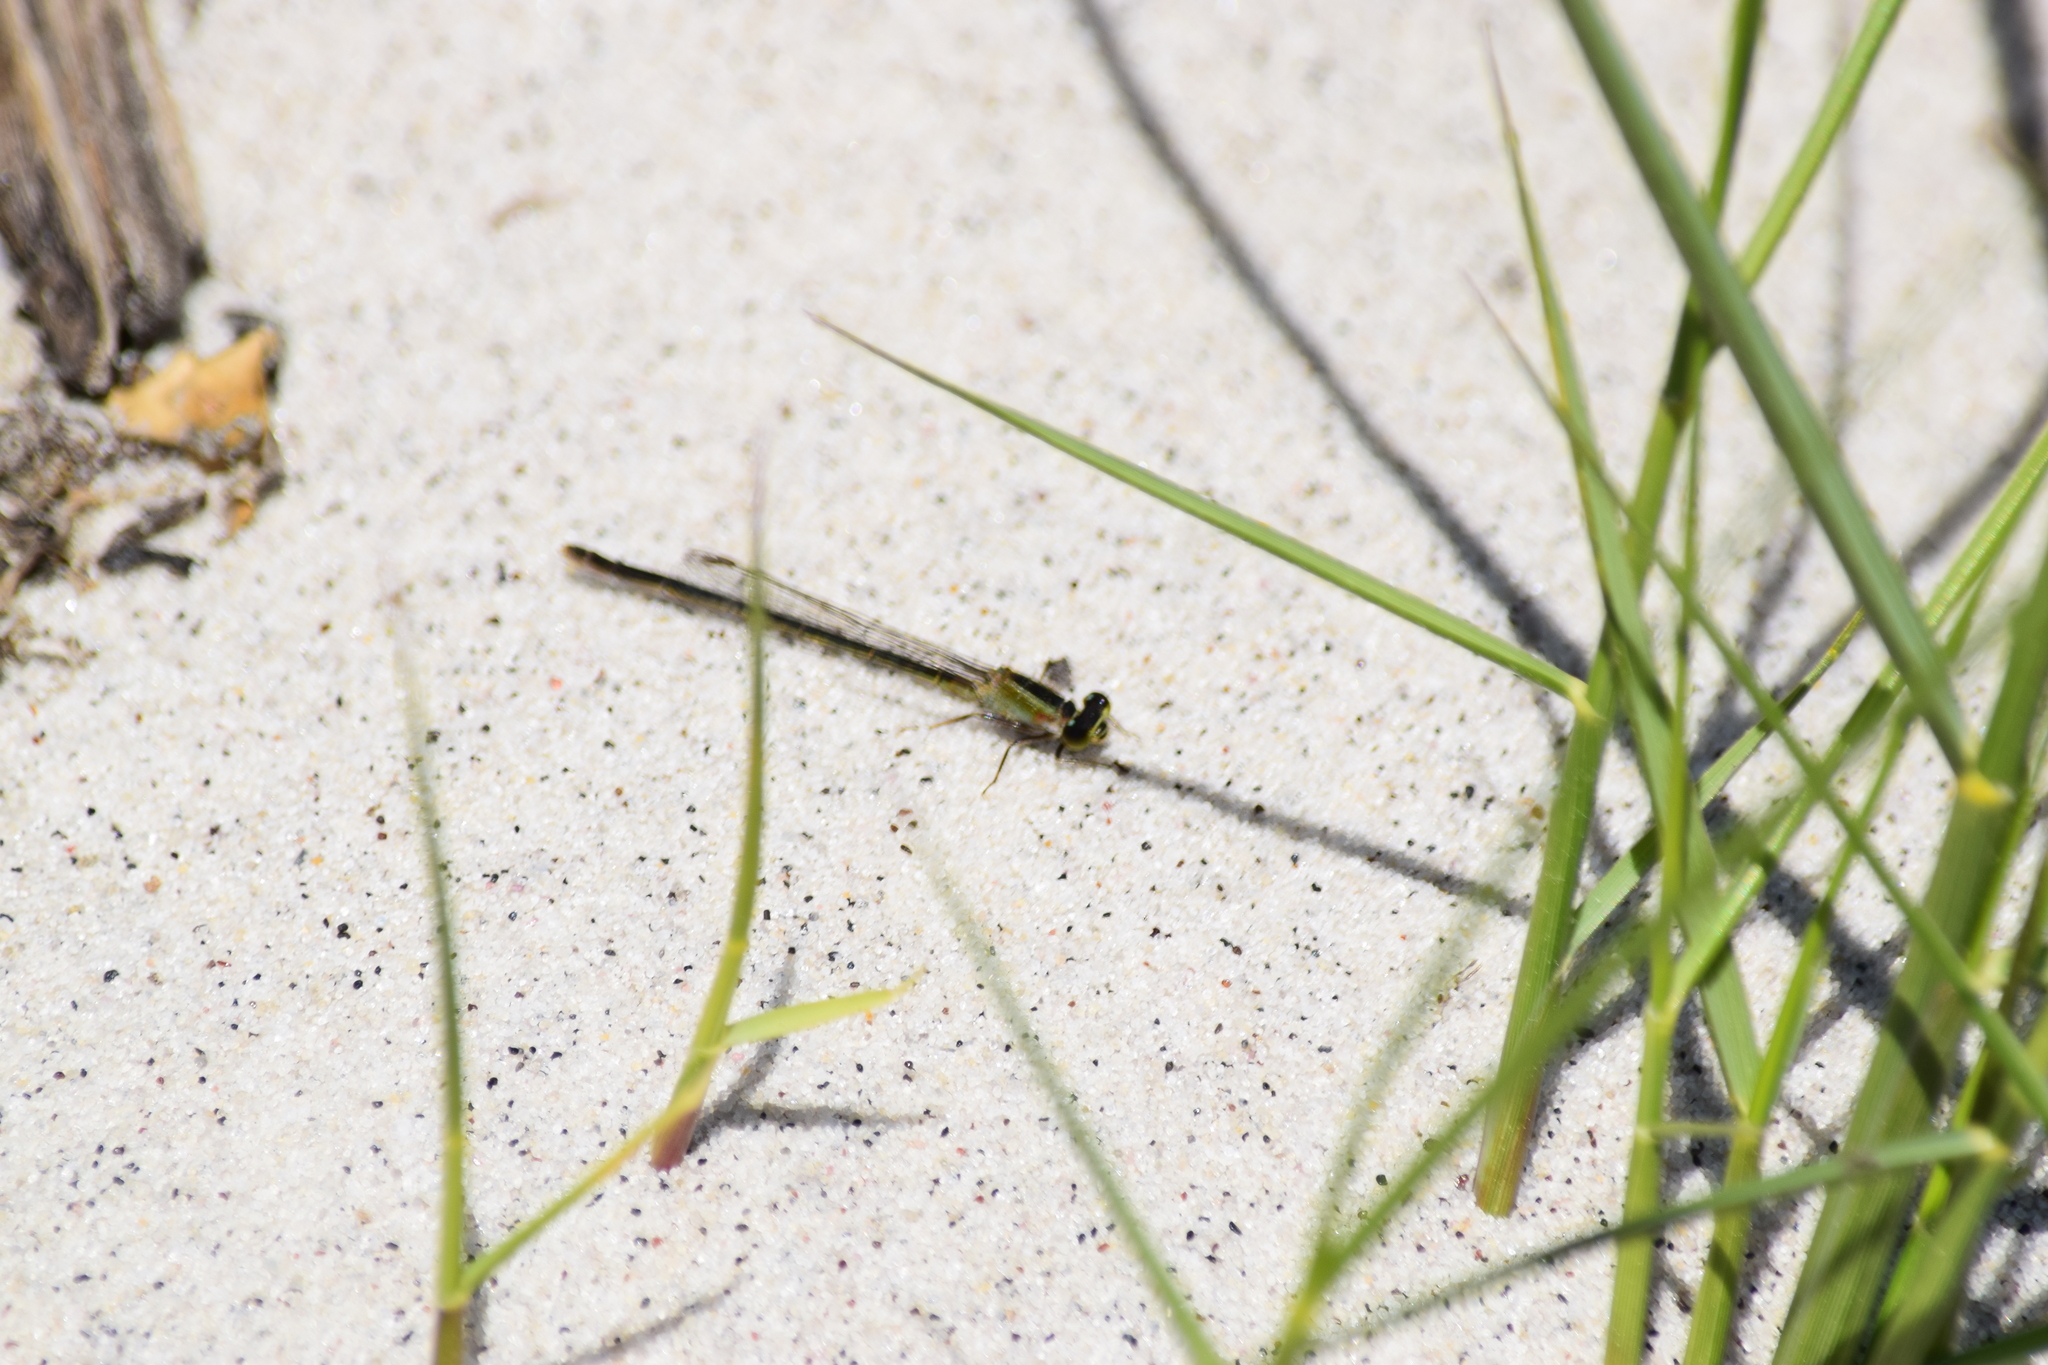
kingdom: Animalia
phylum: Arthropoda
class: Insecta
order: Odonata
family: Coenagrionidae
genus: Ischnura
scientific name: Ischnura ramburii
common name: Rambur's forktail
